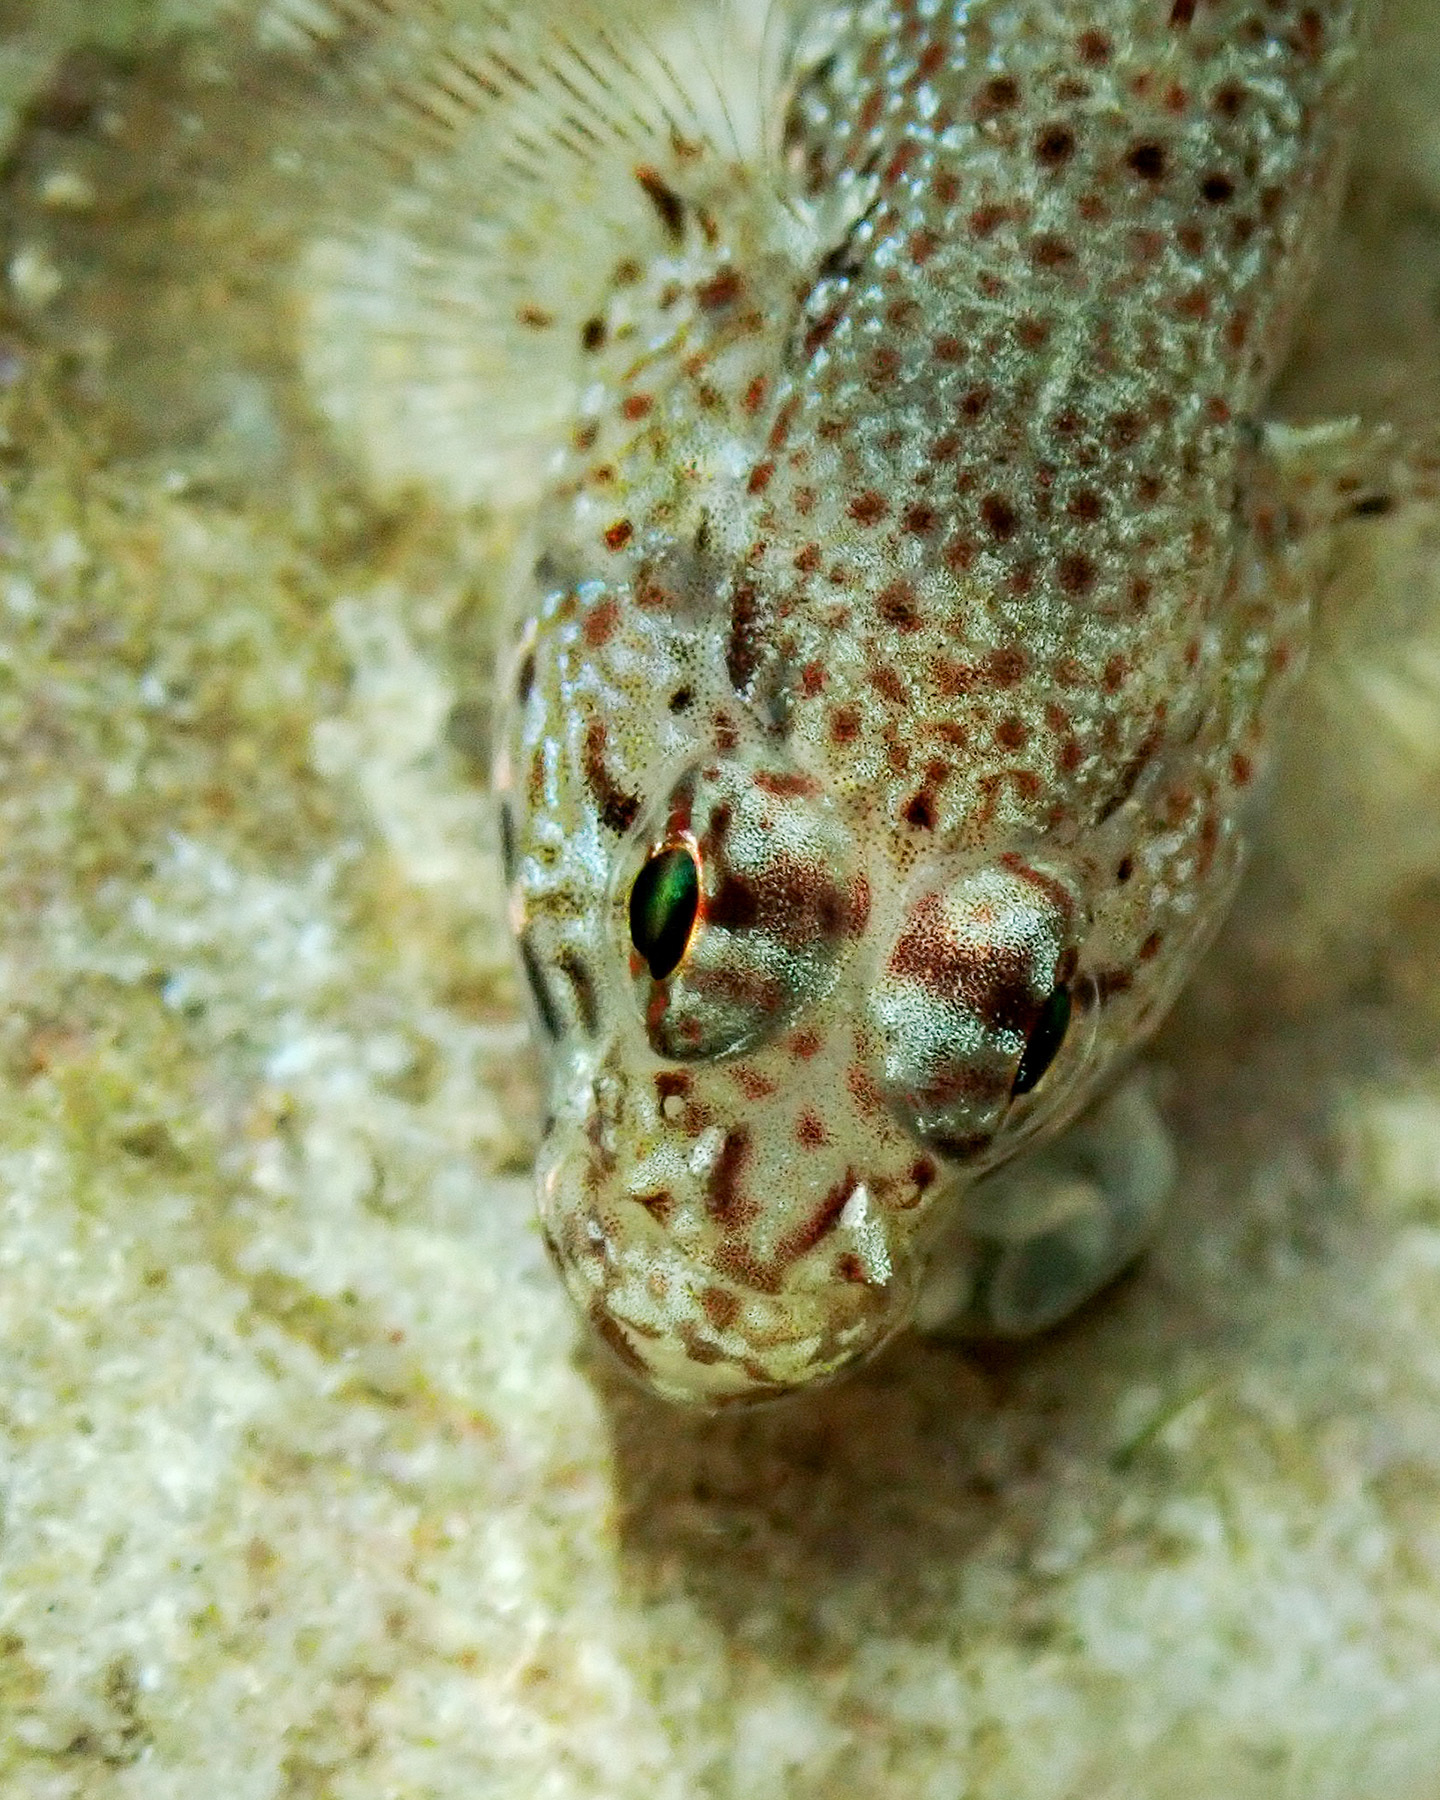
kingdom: Animalia
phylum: Chordata
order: Perciformes
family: Gobiidae
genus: Gobius
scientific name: Gobius incognitus
